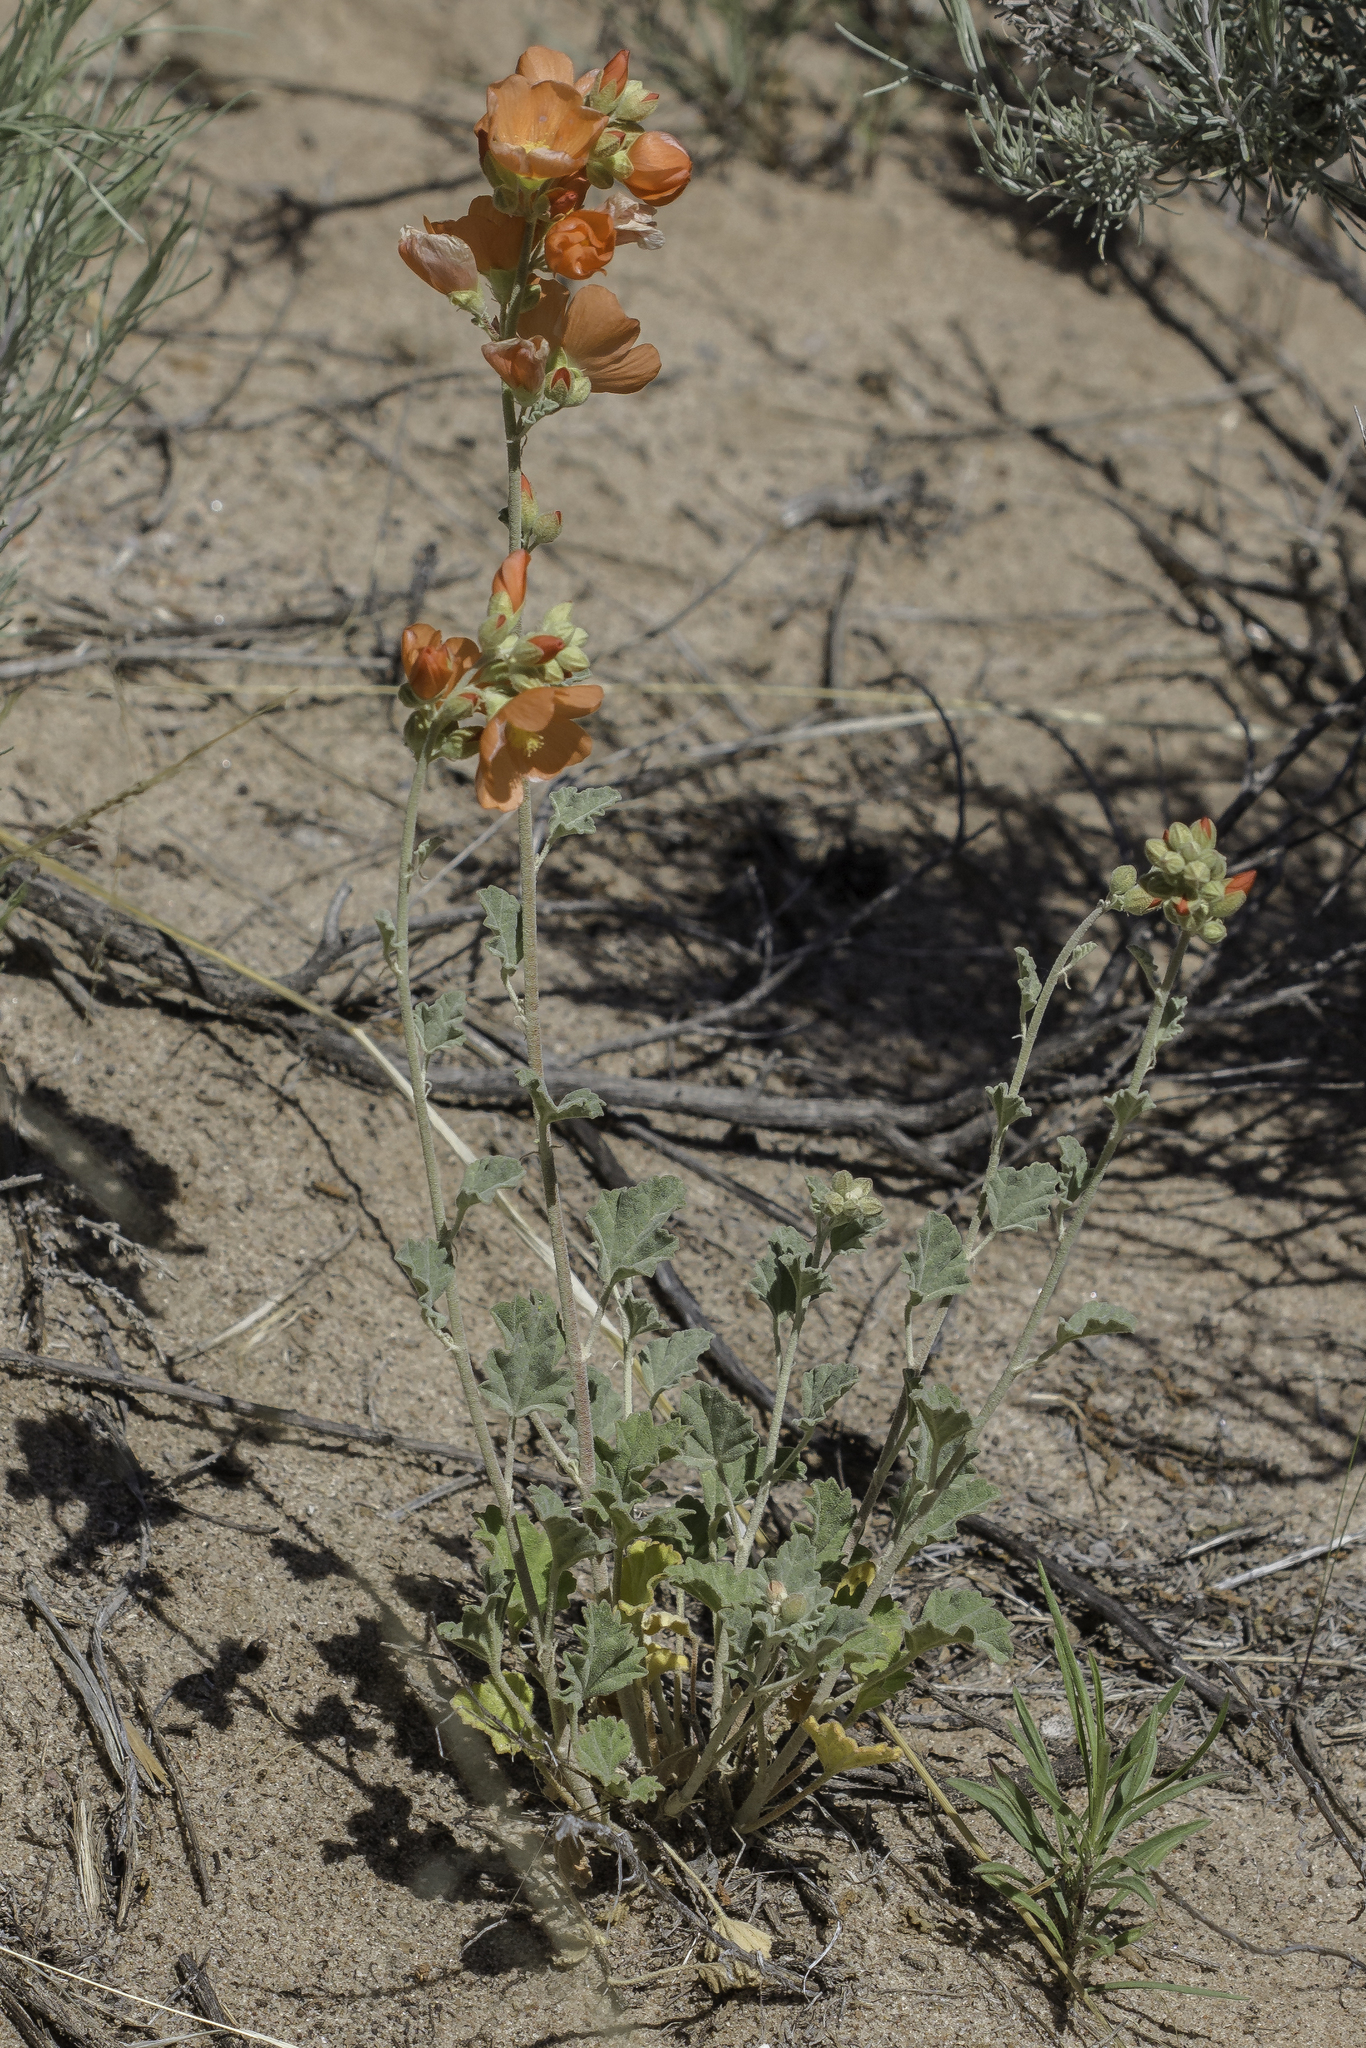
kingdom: Plantae
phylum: Tracheophyta
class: Magnoliopsida
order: Malvales
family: Malvaceae
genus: Sphaeralcea
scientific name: Sphaeralcea parvifolia
